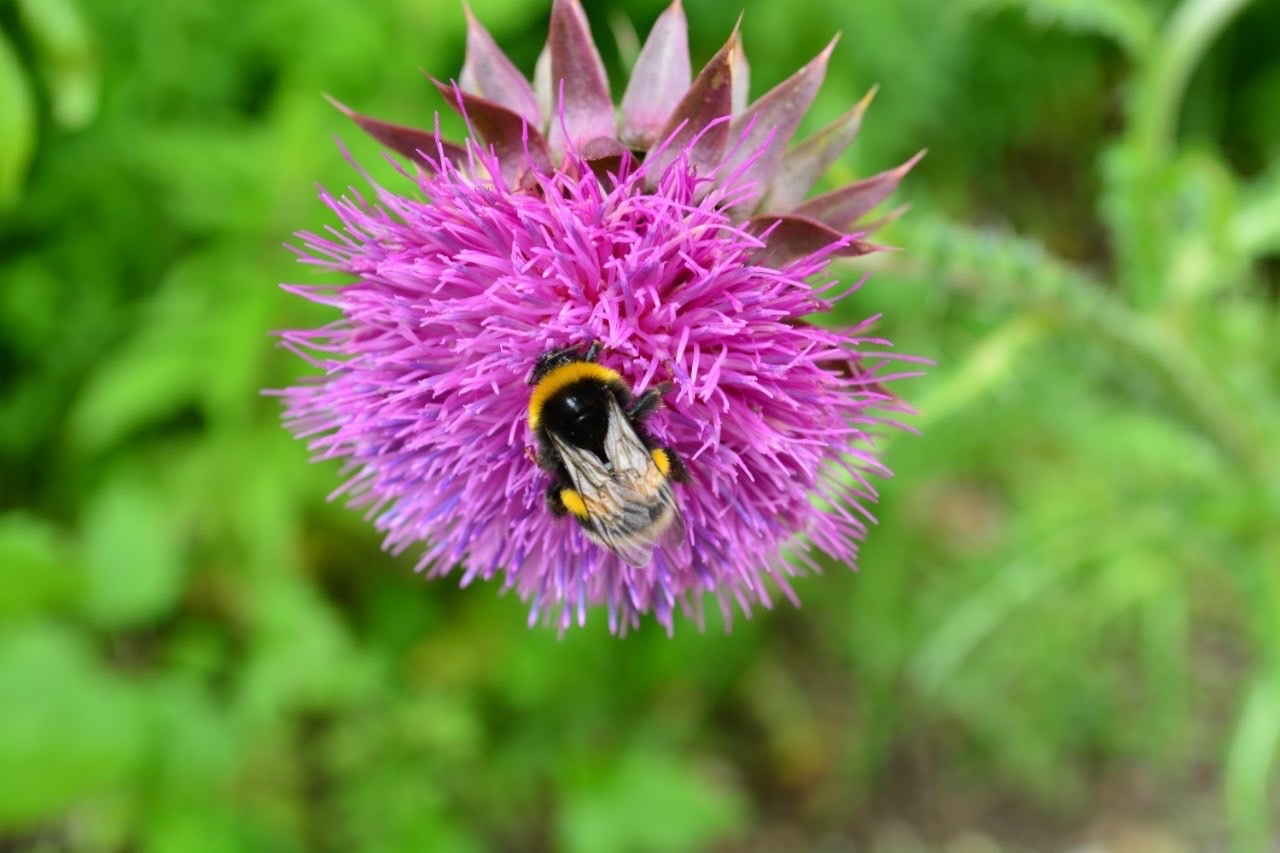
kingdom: Animalia
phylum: Arthropoda
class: Insecta
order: Hymenoptera
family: Apidae
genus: Bombus
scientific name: Bombus
